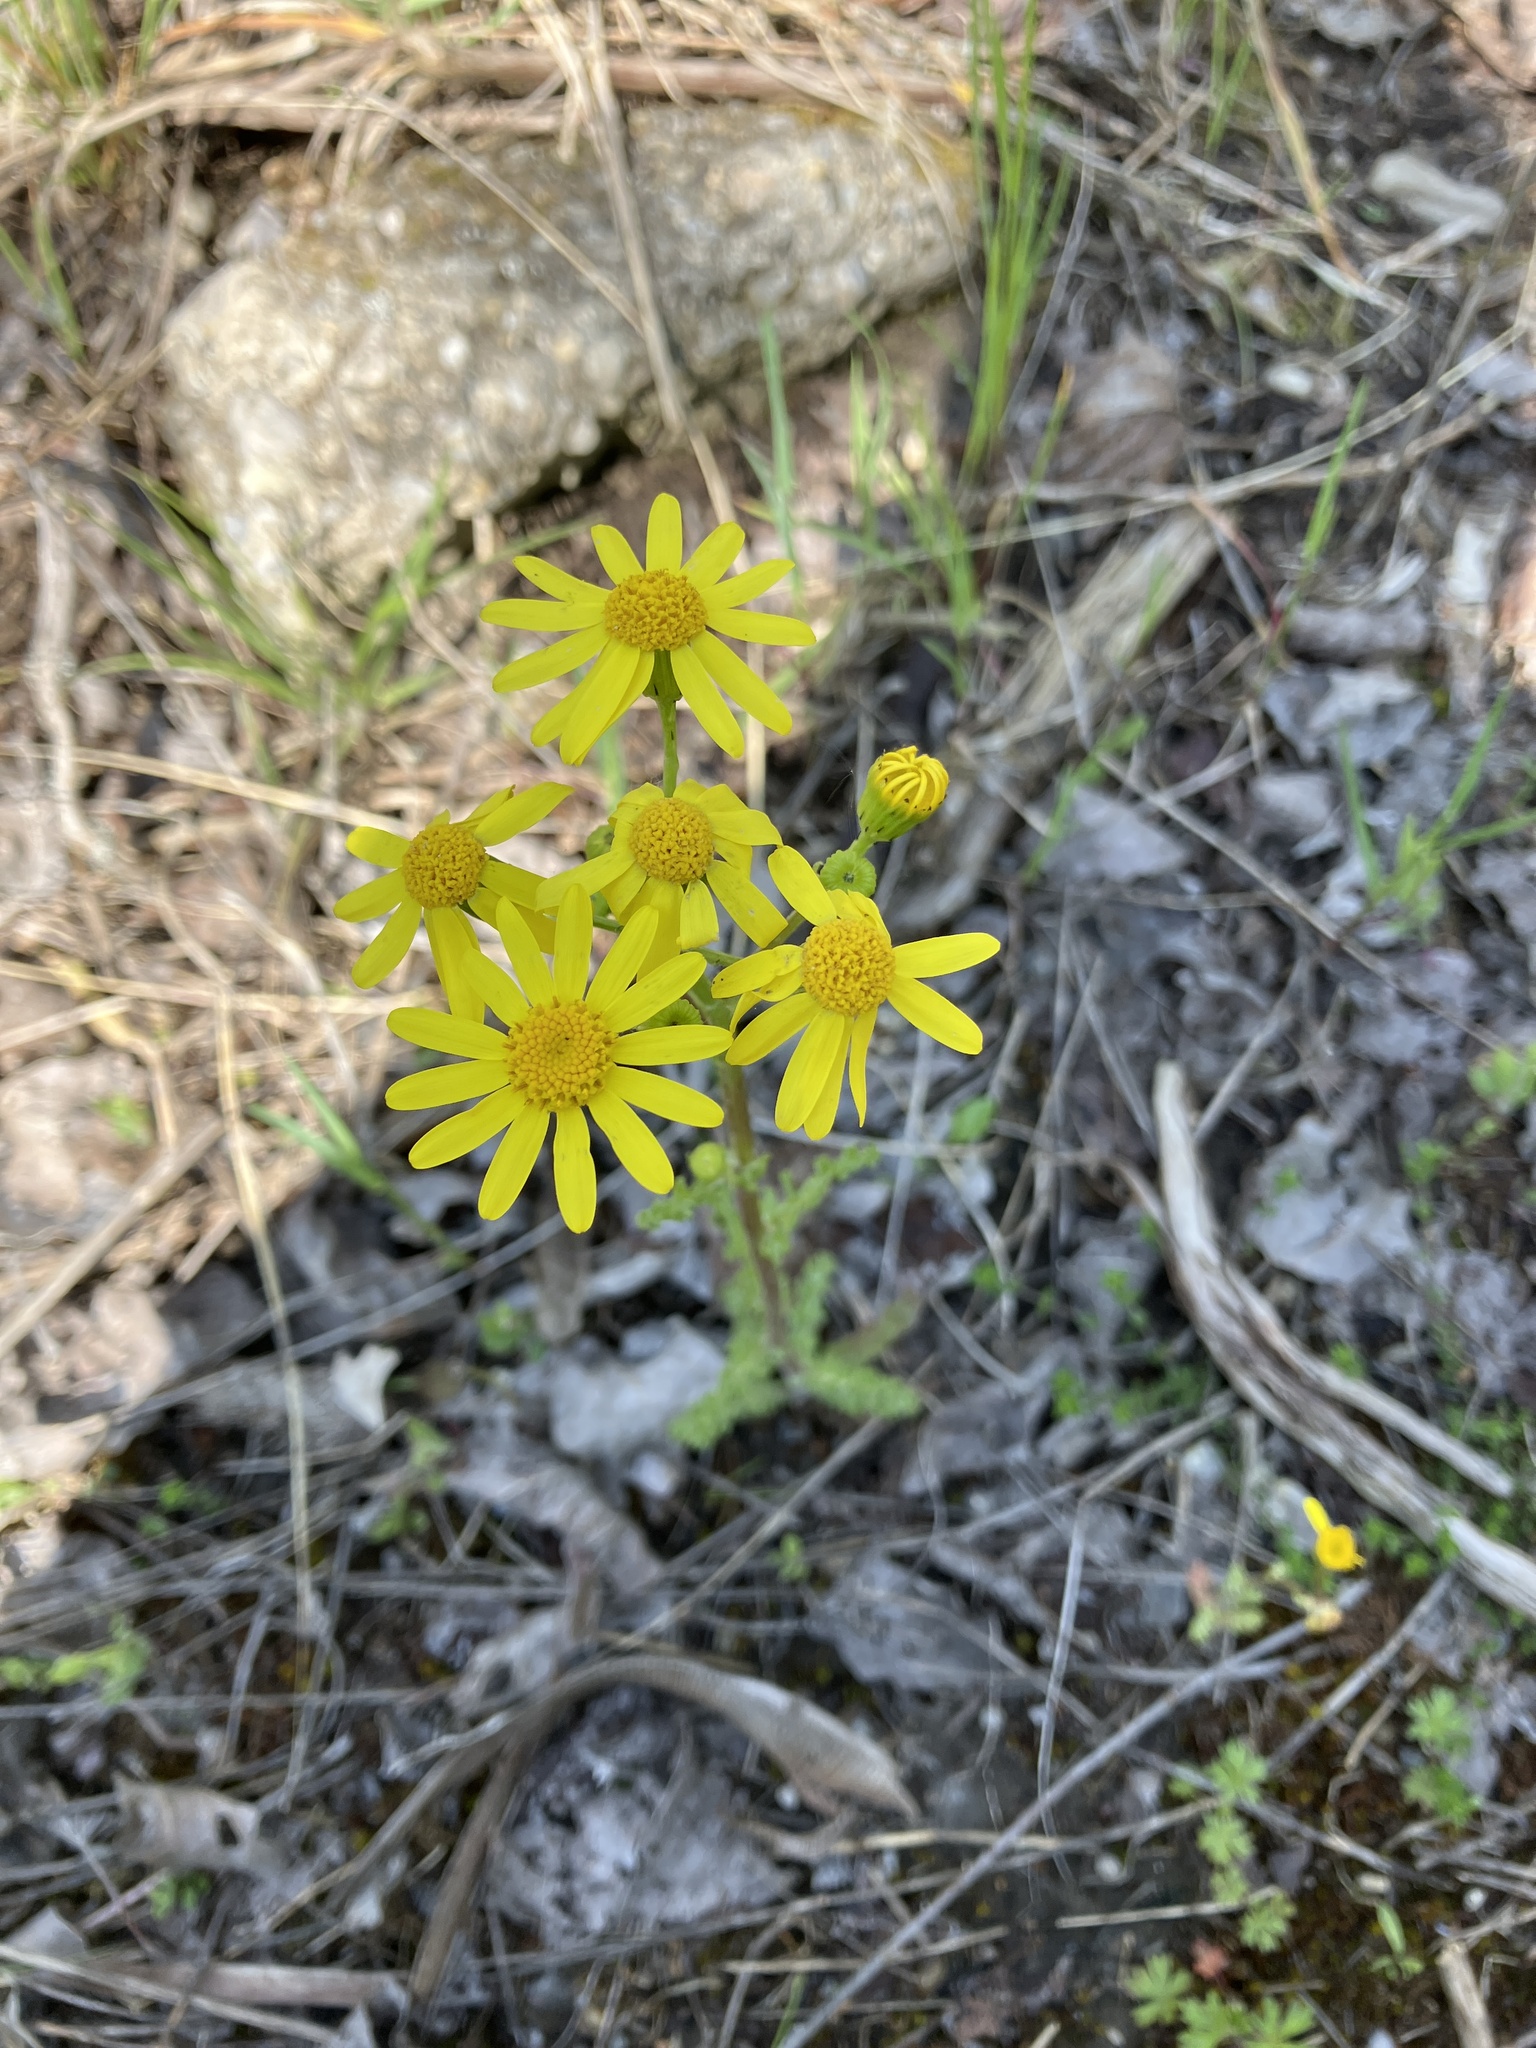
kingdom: Plantae
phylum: Tracheophyta
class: Magnoliopsida
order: Asterales
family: Asteraceae
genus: Senecio
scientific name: Senecio vernalis
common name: Eastern groundsel
